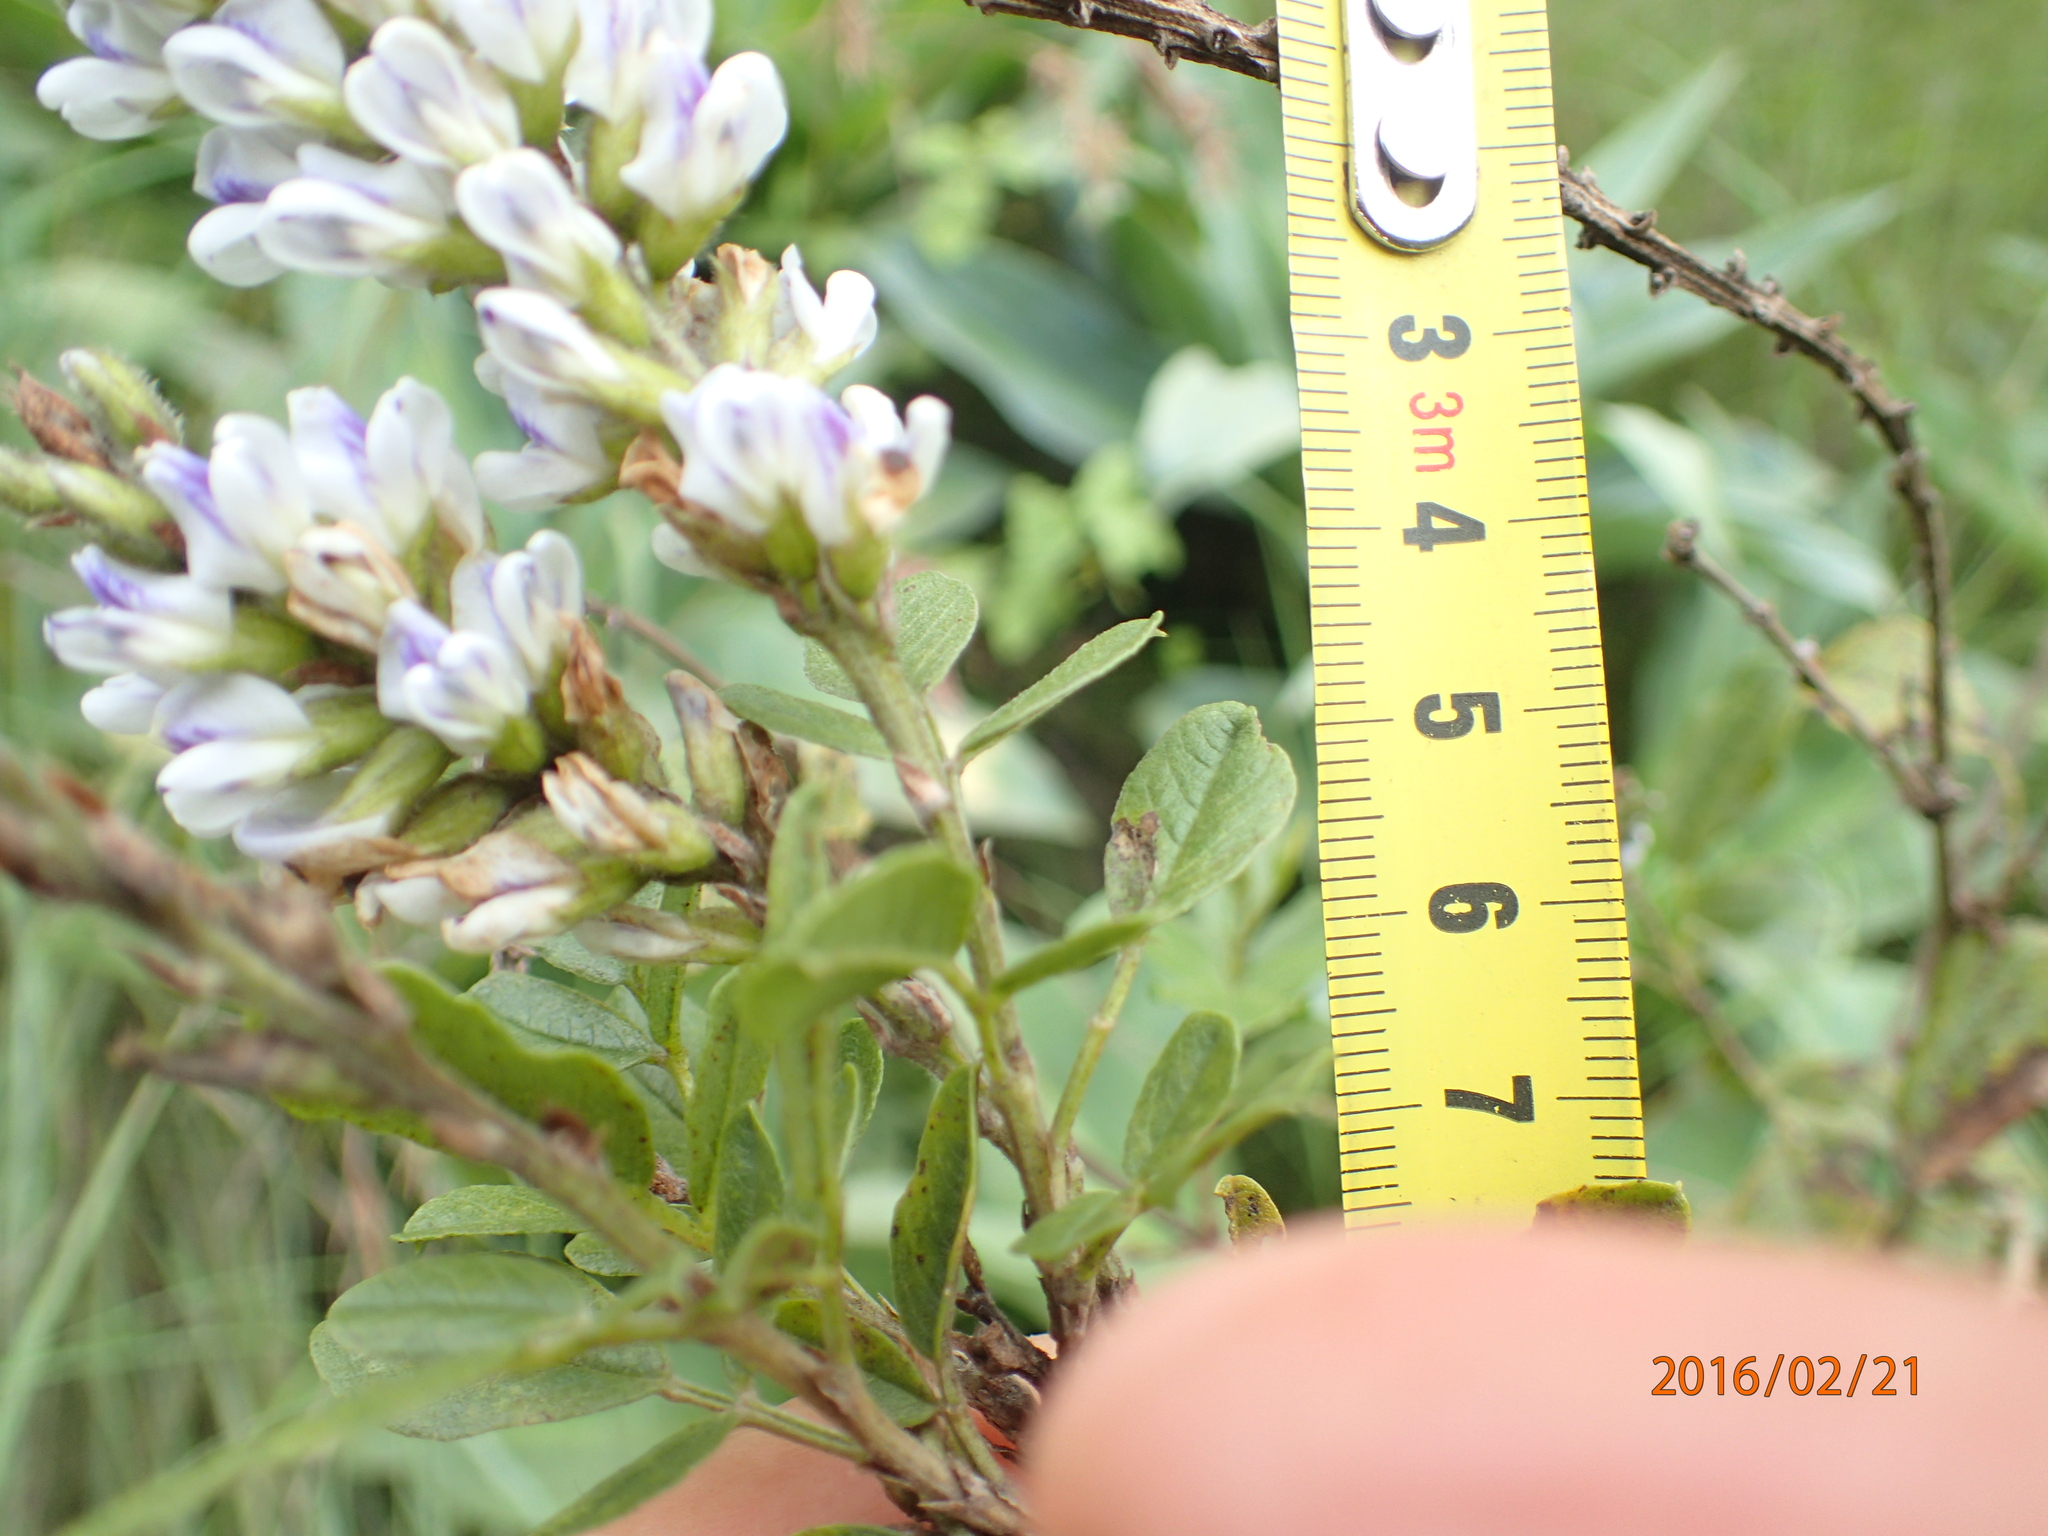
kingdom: Plantae
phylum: Tracheophyta
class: Magnoliopsida
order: Fabales
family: Fabaceae
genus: Psoralea
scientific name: Psoralea fumea
